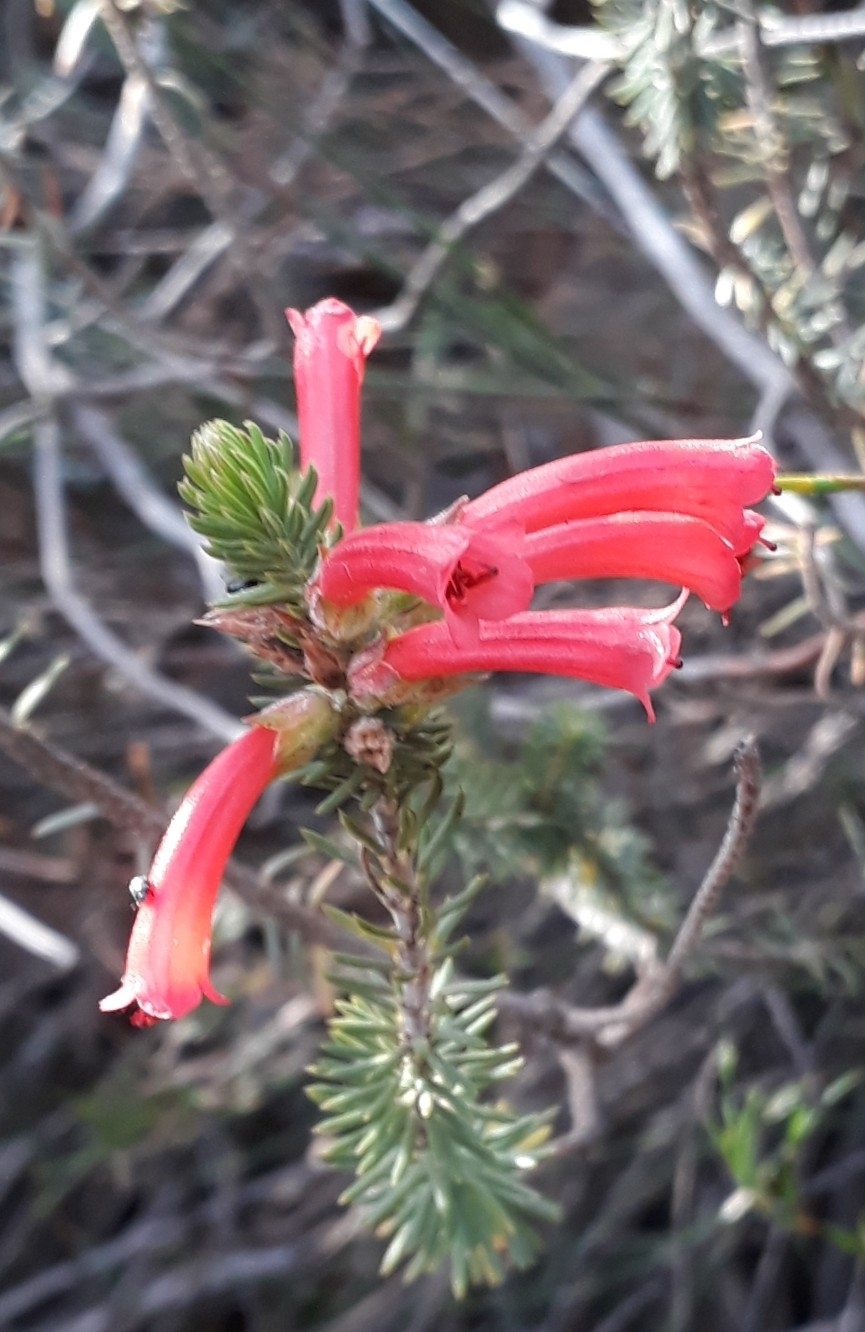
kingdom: Plantae
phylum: Tracheophyta
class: Magnoliopsida
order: Ericales
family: Ericaceae
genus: Erica
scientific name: Erica abietina
